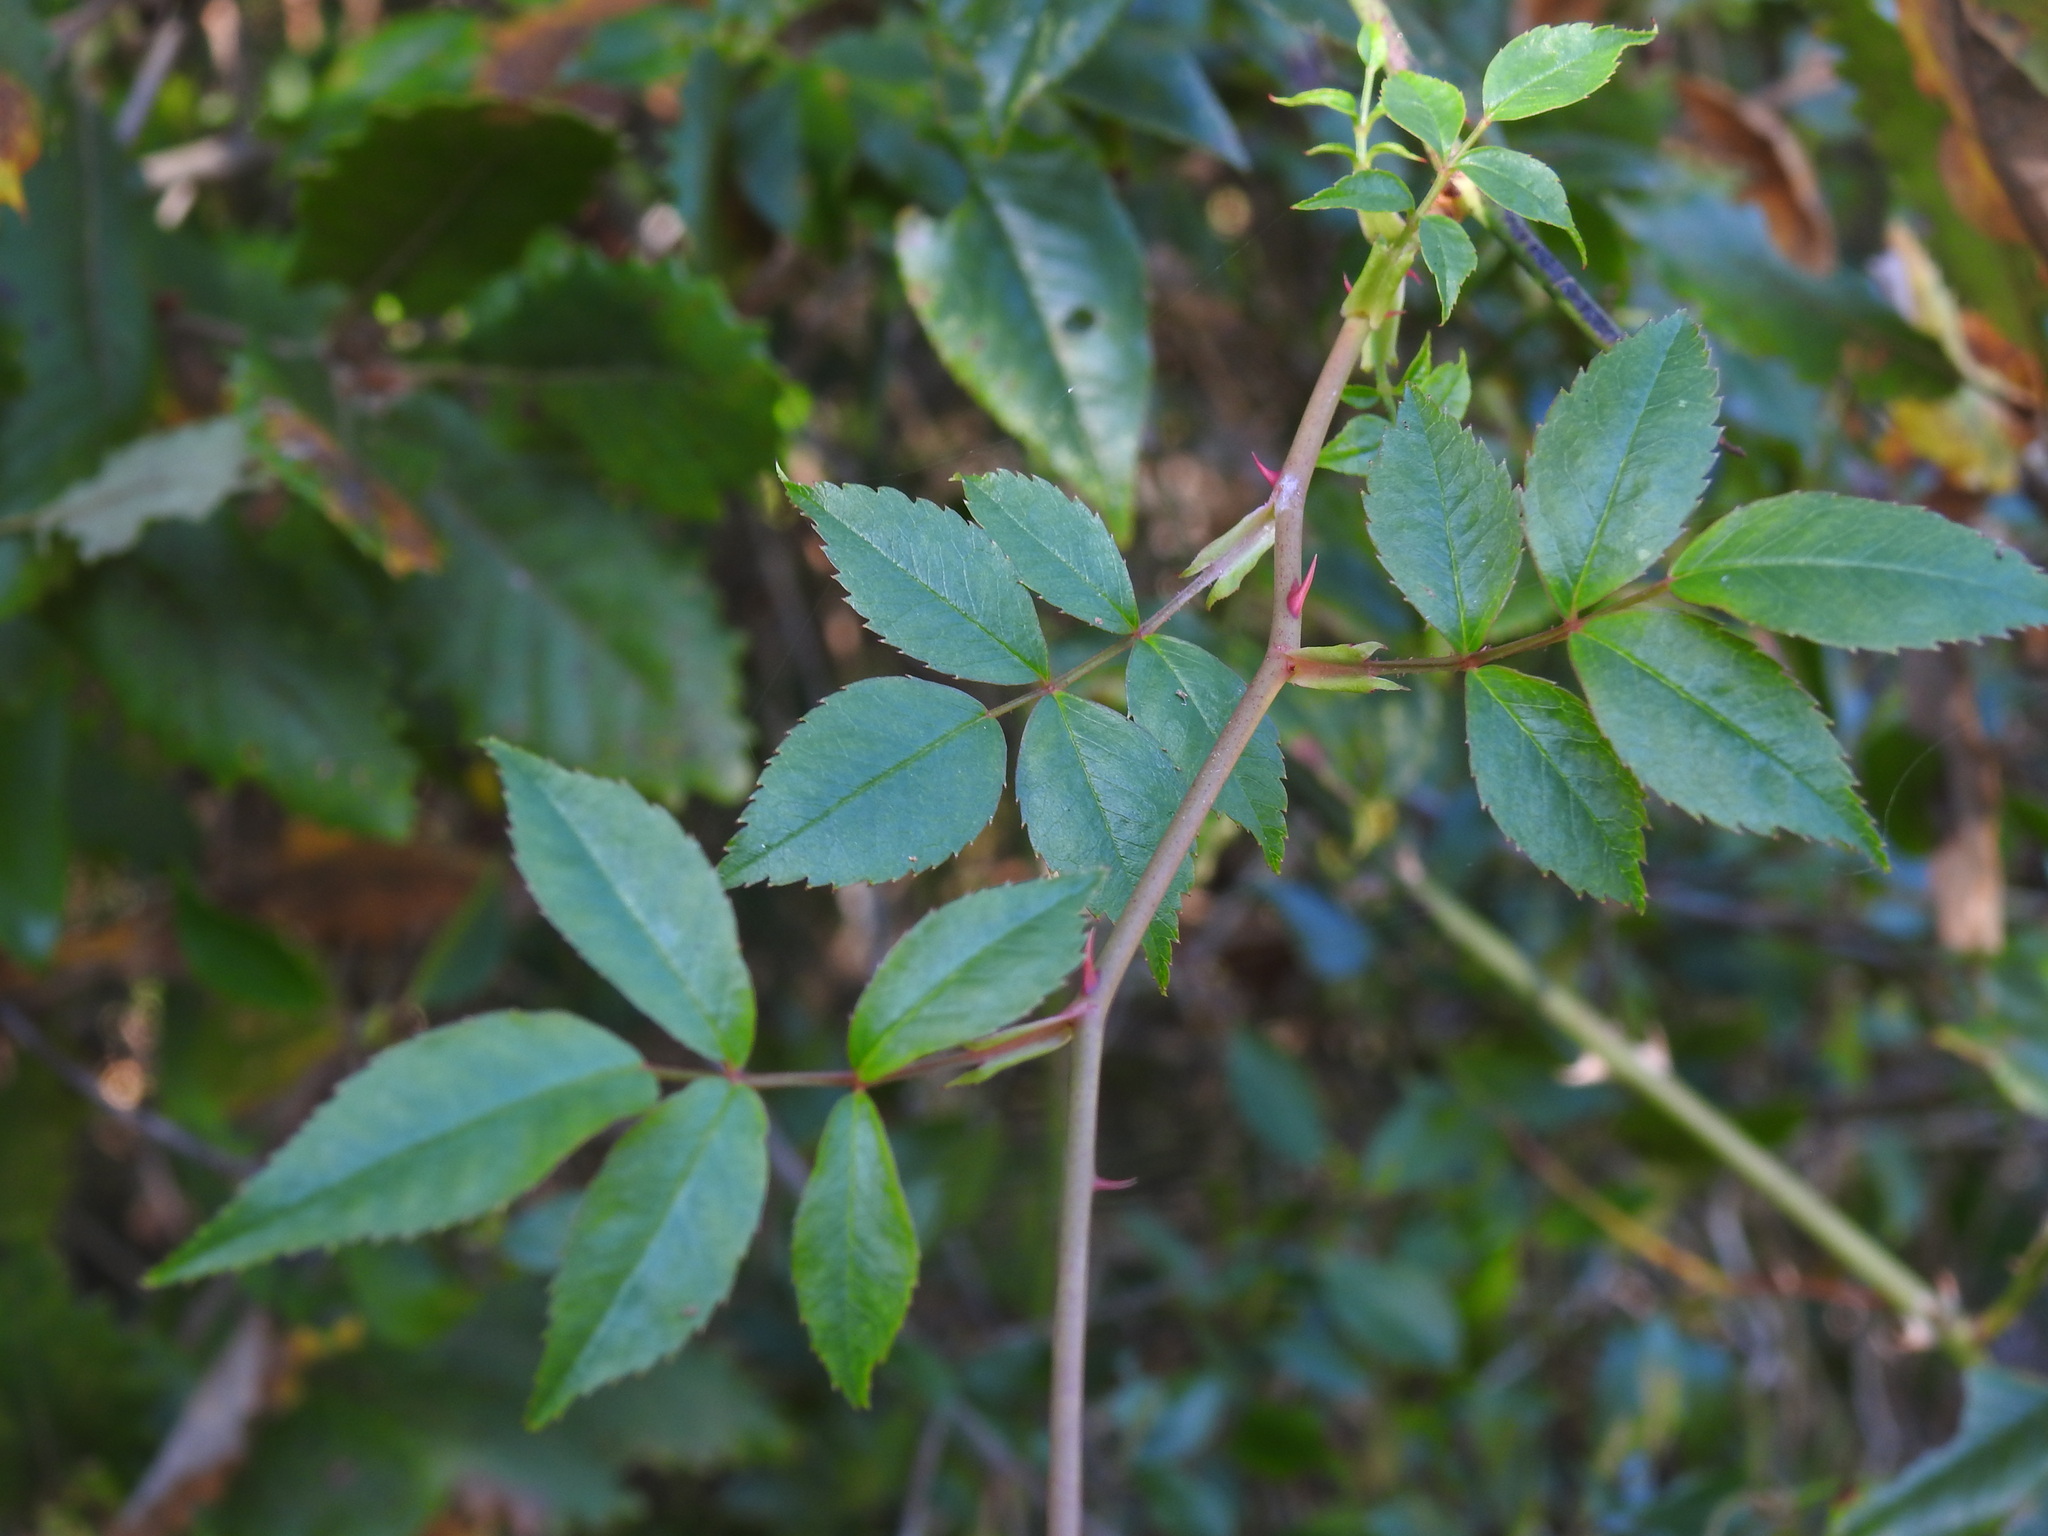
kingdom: Plantae
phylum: Tracheophyta
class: Magnoliopsida
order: Rosales
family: Rosaceae
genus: Rosa
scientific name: Rosa sempervirens
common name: Evergreen rose
